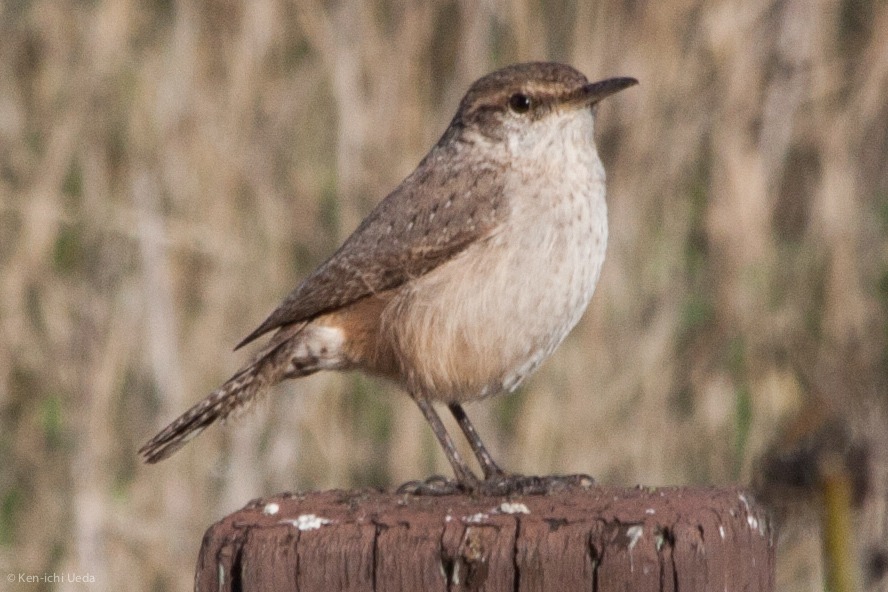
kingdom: Animalia
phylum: Chordata
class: Aves
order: Passeriformes
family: Troglodytidae
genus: Salpinctes
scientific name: Salpinctes obsoletus
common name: Rock wren
